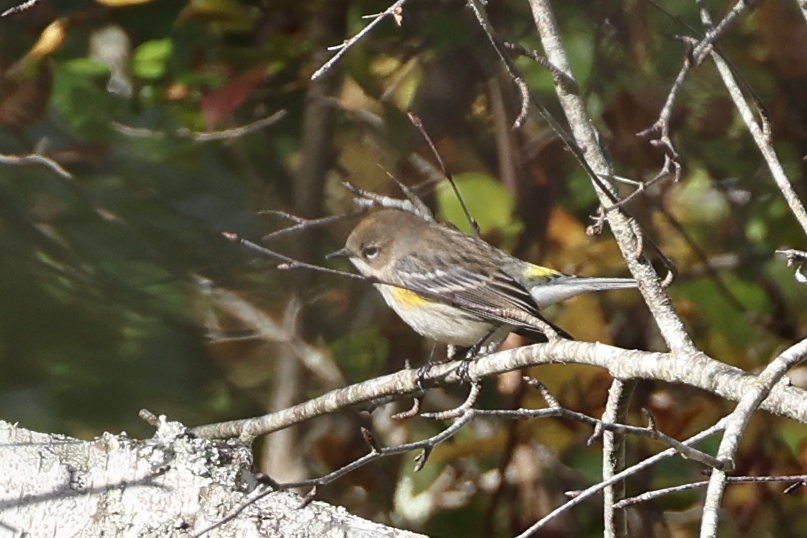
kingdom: Animalia
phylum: Chordata
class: Aves
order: Passeriformes
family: Parulidae
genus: Setophaga
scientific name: Setophaga coronata
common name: Myrtle warbler
